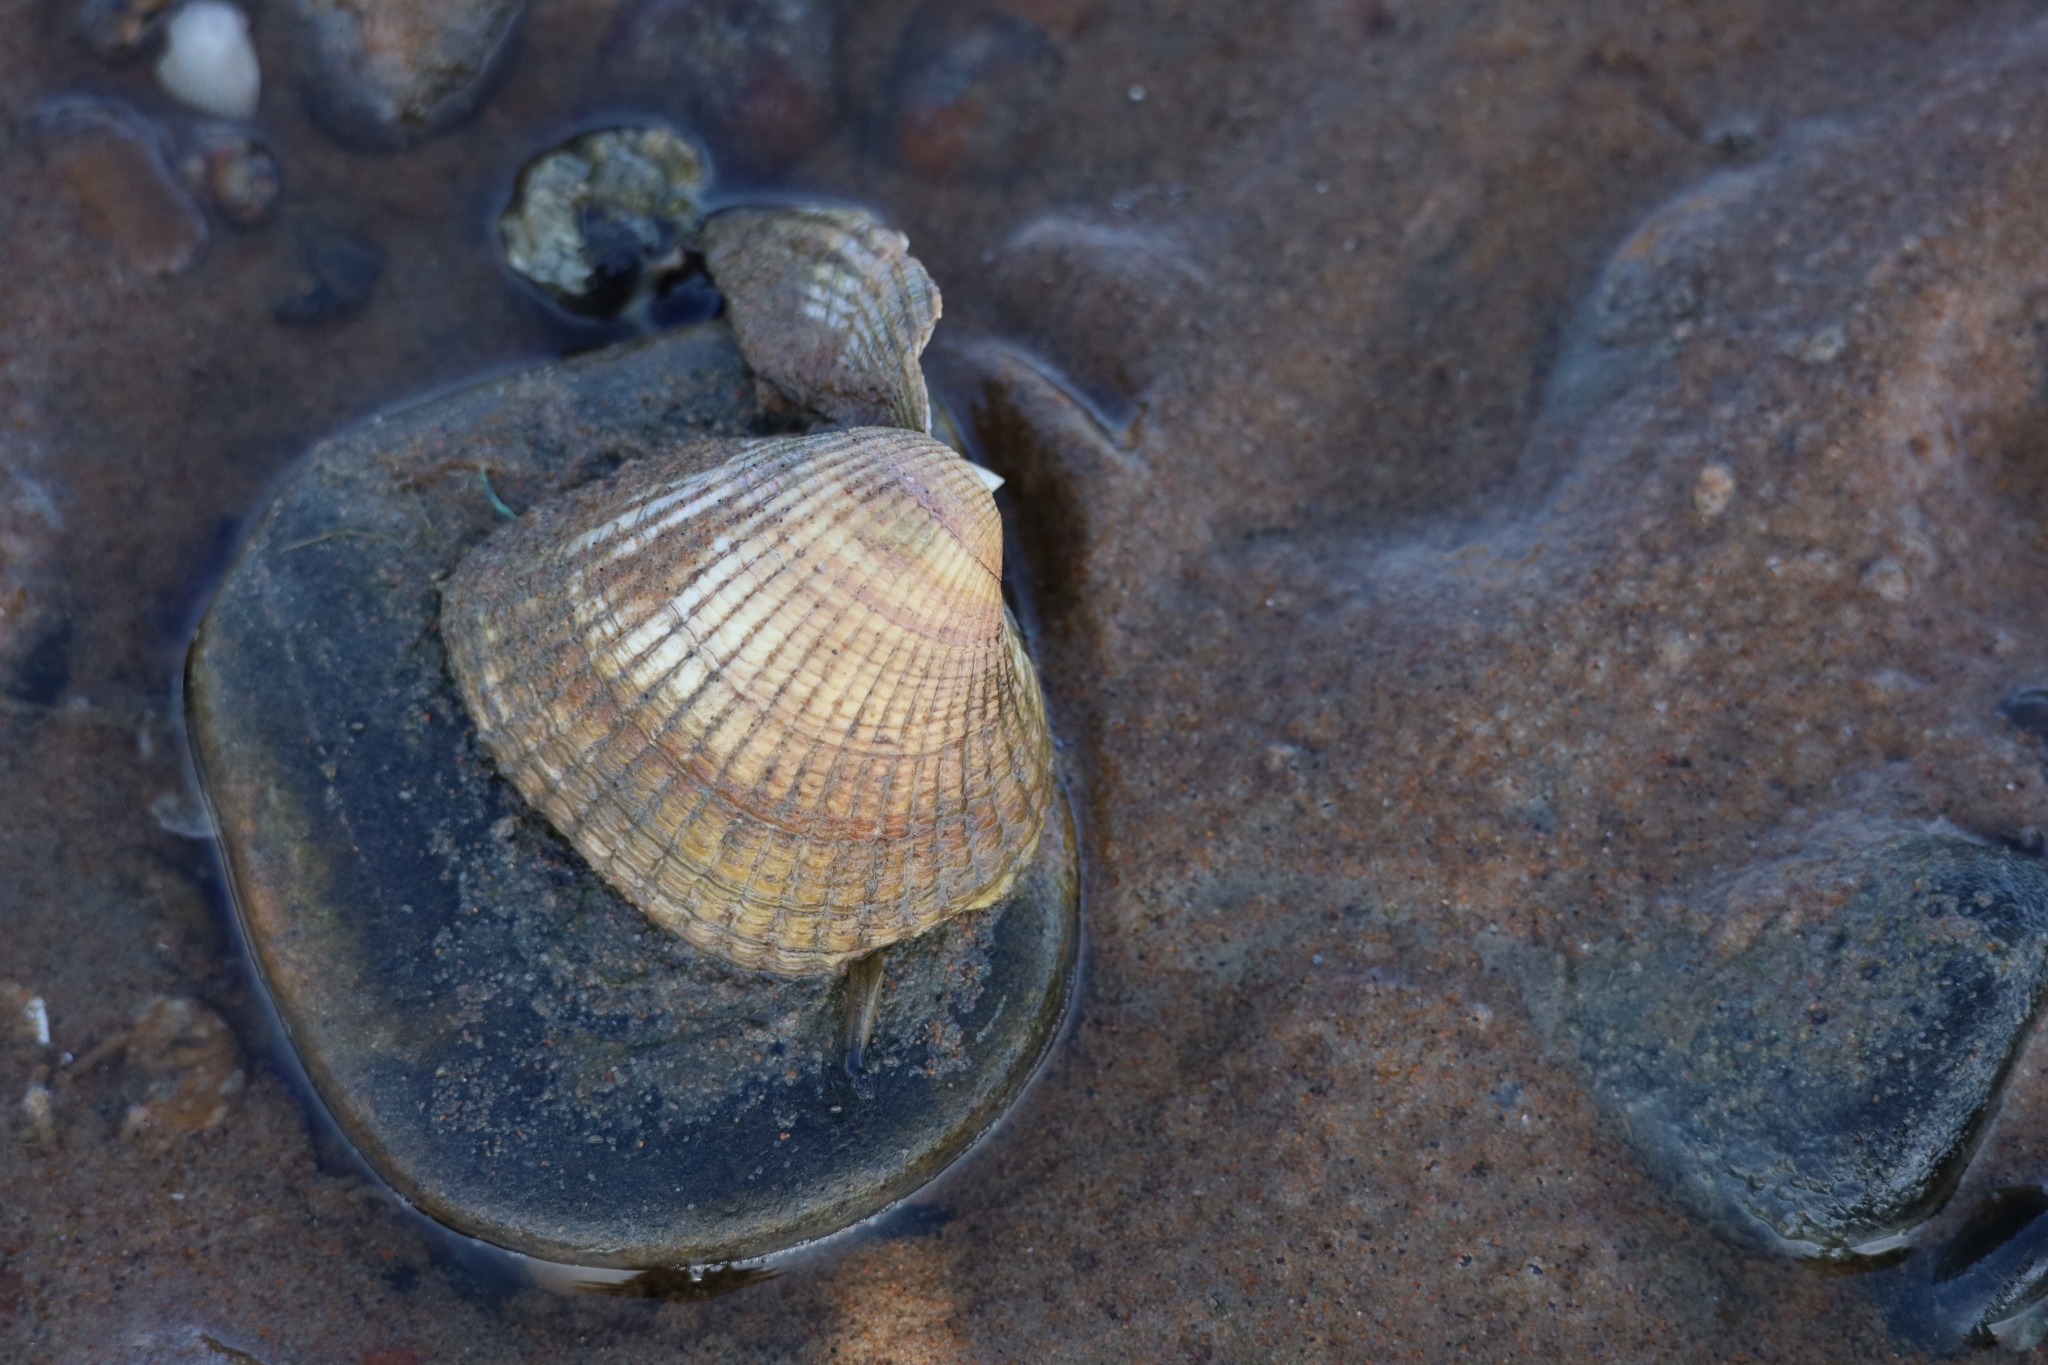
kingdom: Animalia
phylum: Mollusca
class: Bivalvia
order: Cardiida
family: Cardiidae
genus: Cerastoderma
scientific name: Cerastoderma edule
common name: Common cockle
